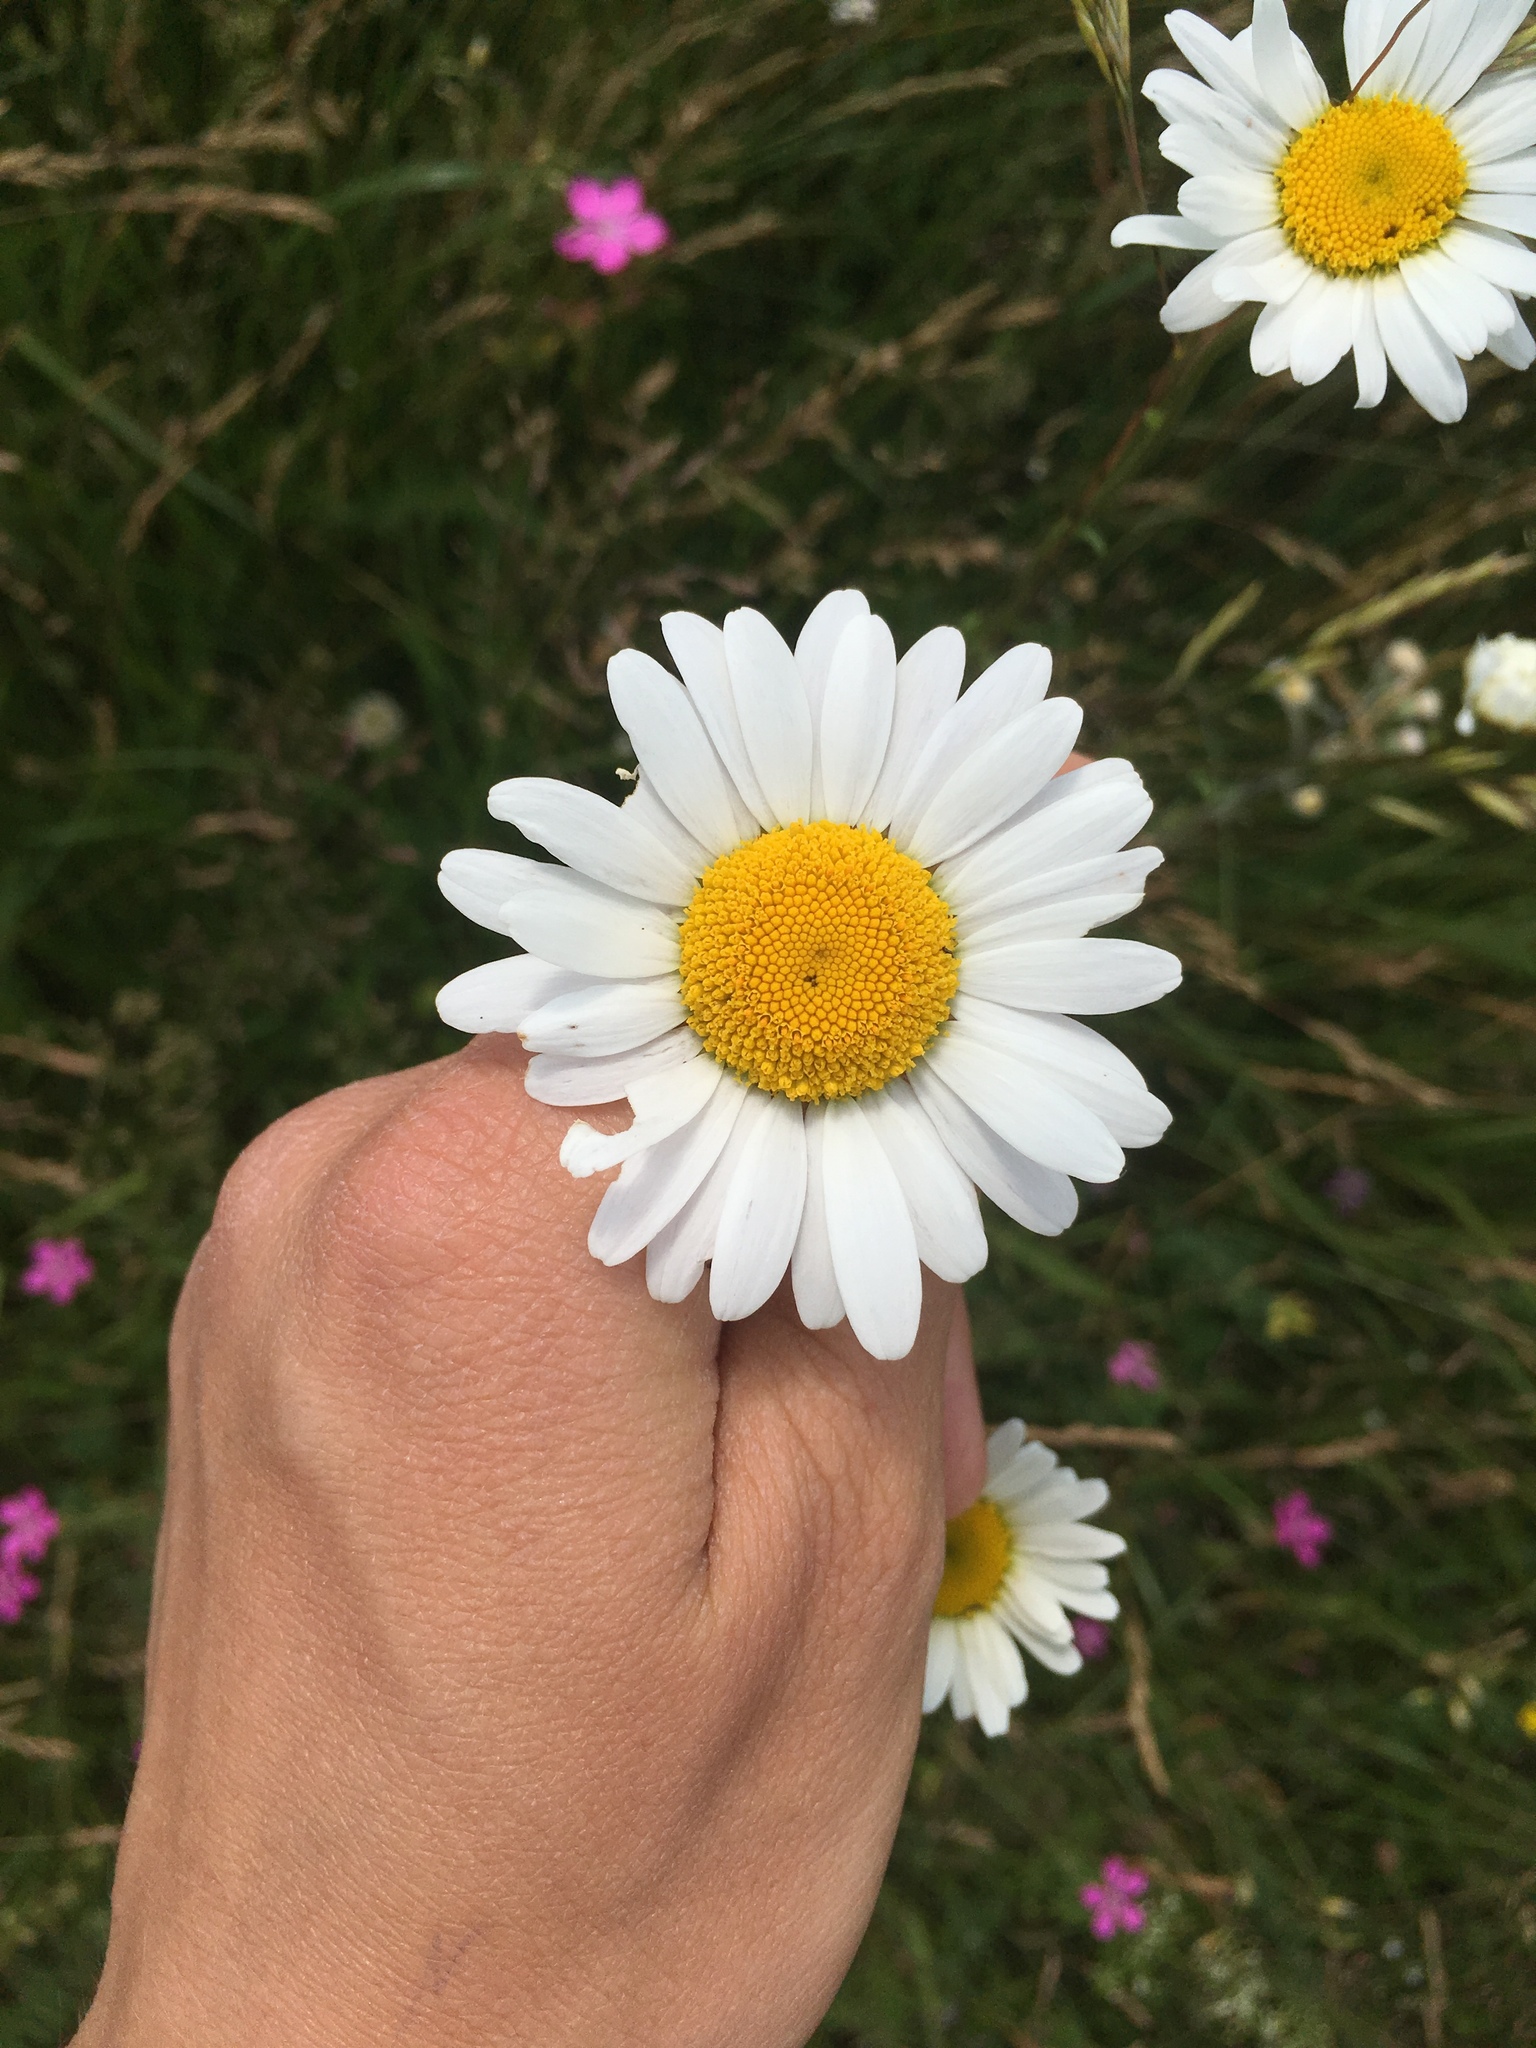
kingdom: Plantae
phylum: Tracheophyta
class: Magnoliopsida
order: Asterales
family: Asteraceae
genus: Leucanthemum
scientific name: Leucanthemum vulgare
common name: Oxeye daisy
